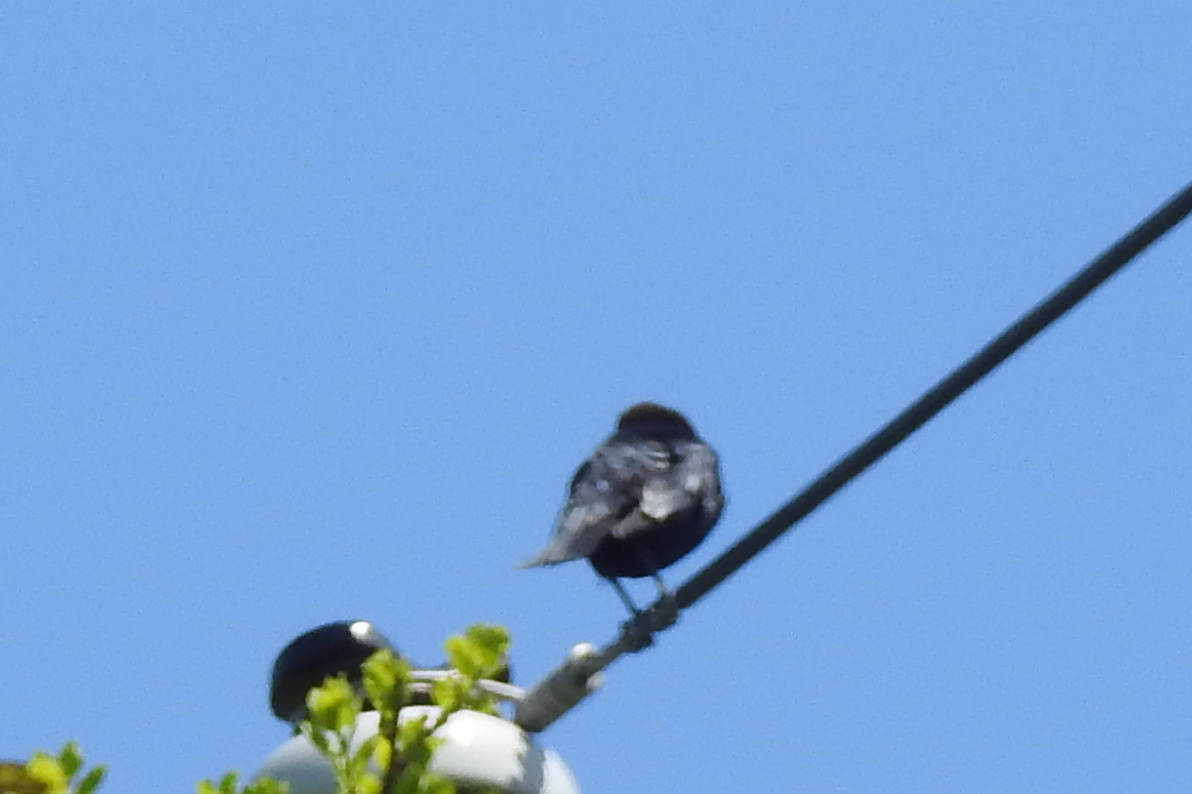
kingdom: Animalia
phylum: Chordata
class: Aves
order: Passeriformes
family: Icteridae
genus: Molothrus
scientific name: Molothrus ater
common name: Brown-headed cowbird
